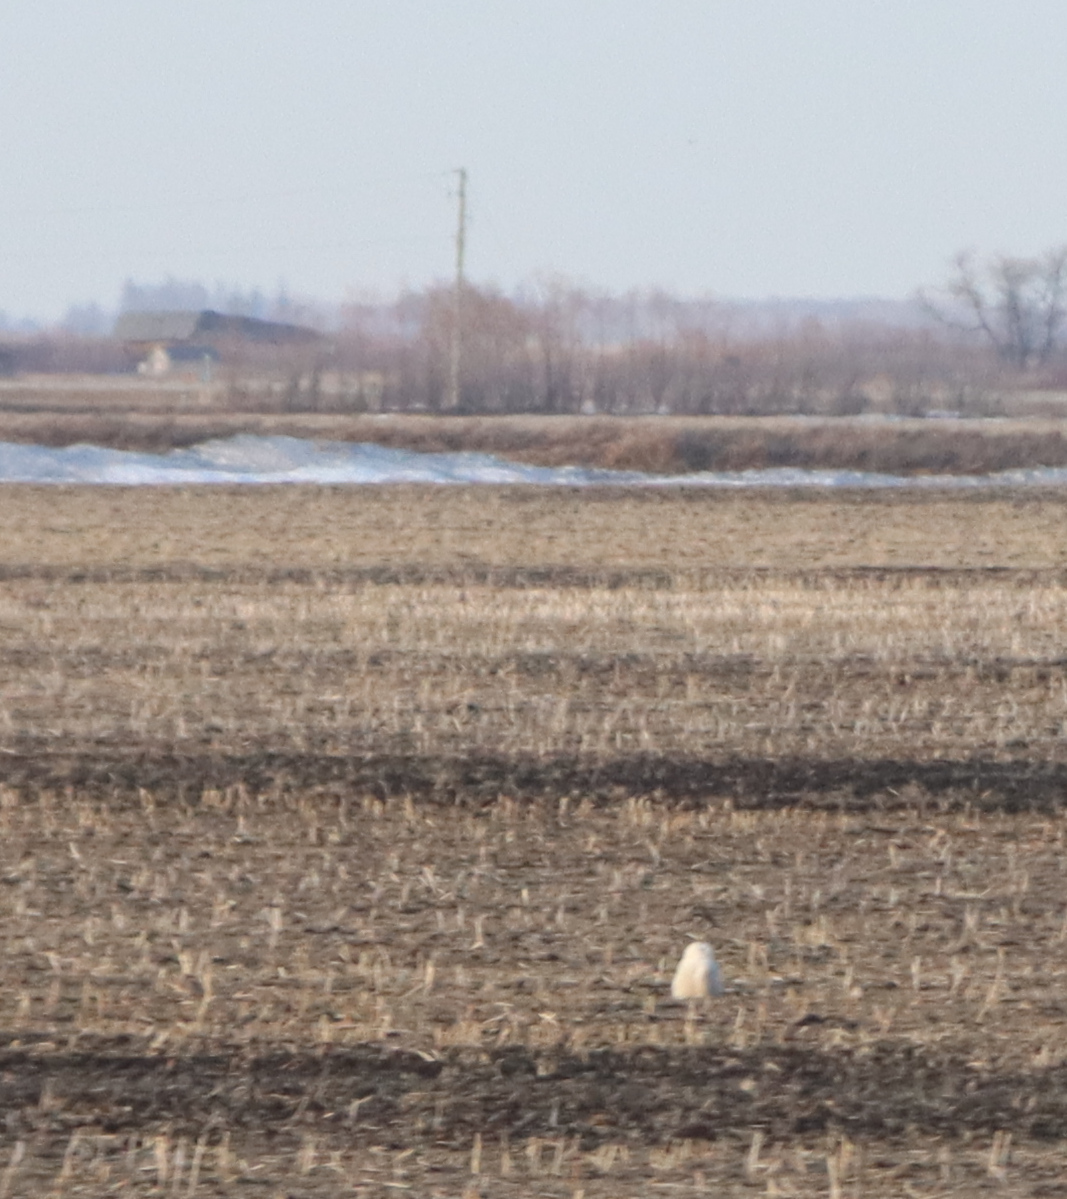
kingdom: Animalia
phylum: Chordata
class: Aves
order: Strigiformes
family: Strigidae
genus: Bubo
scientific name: Bubo scandiacus
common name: Snowy owl
